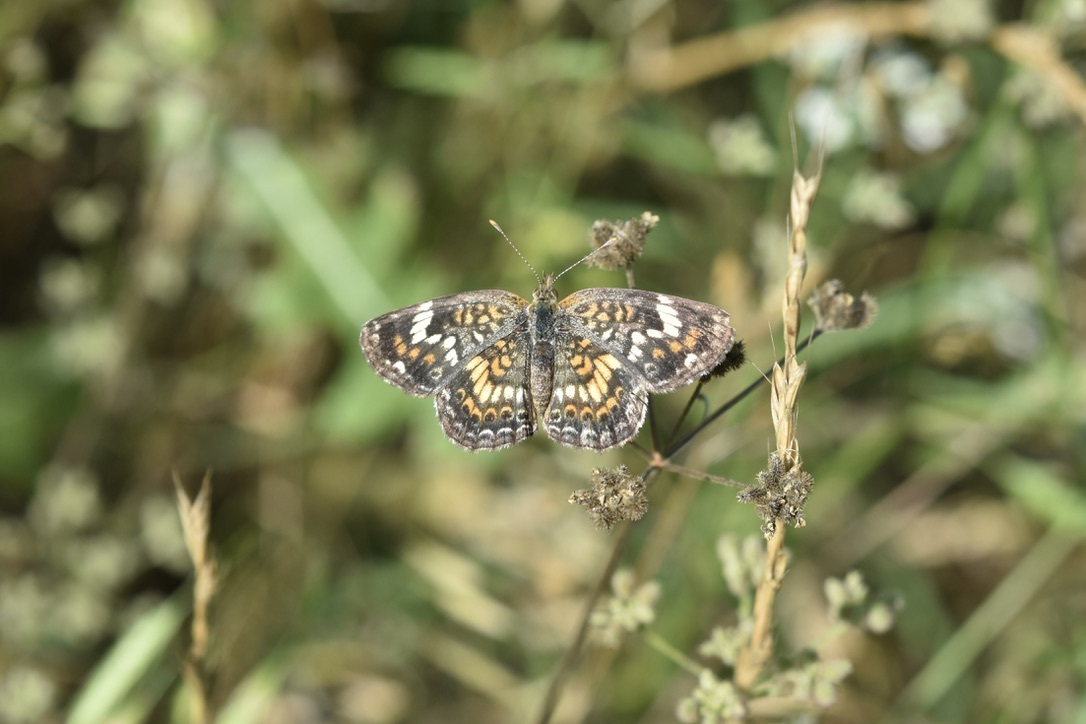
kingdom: Animalia
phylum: Arthropoda
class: Insecta
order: Lepidoptera
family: Nymphalidae
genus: Phyciodes
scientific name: Phyciodes phaon
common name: Phaon crescent
